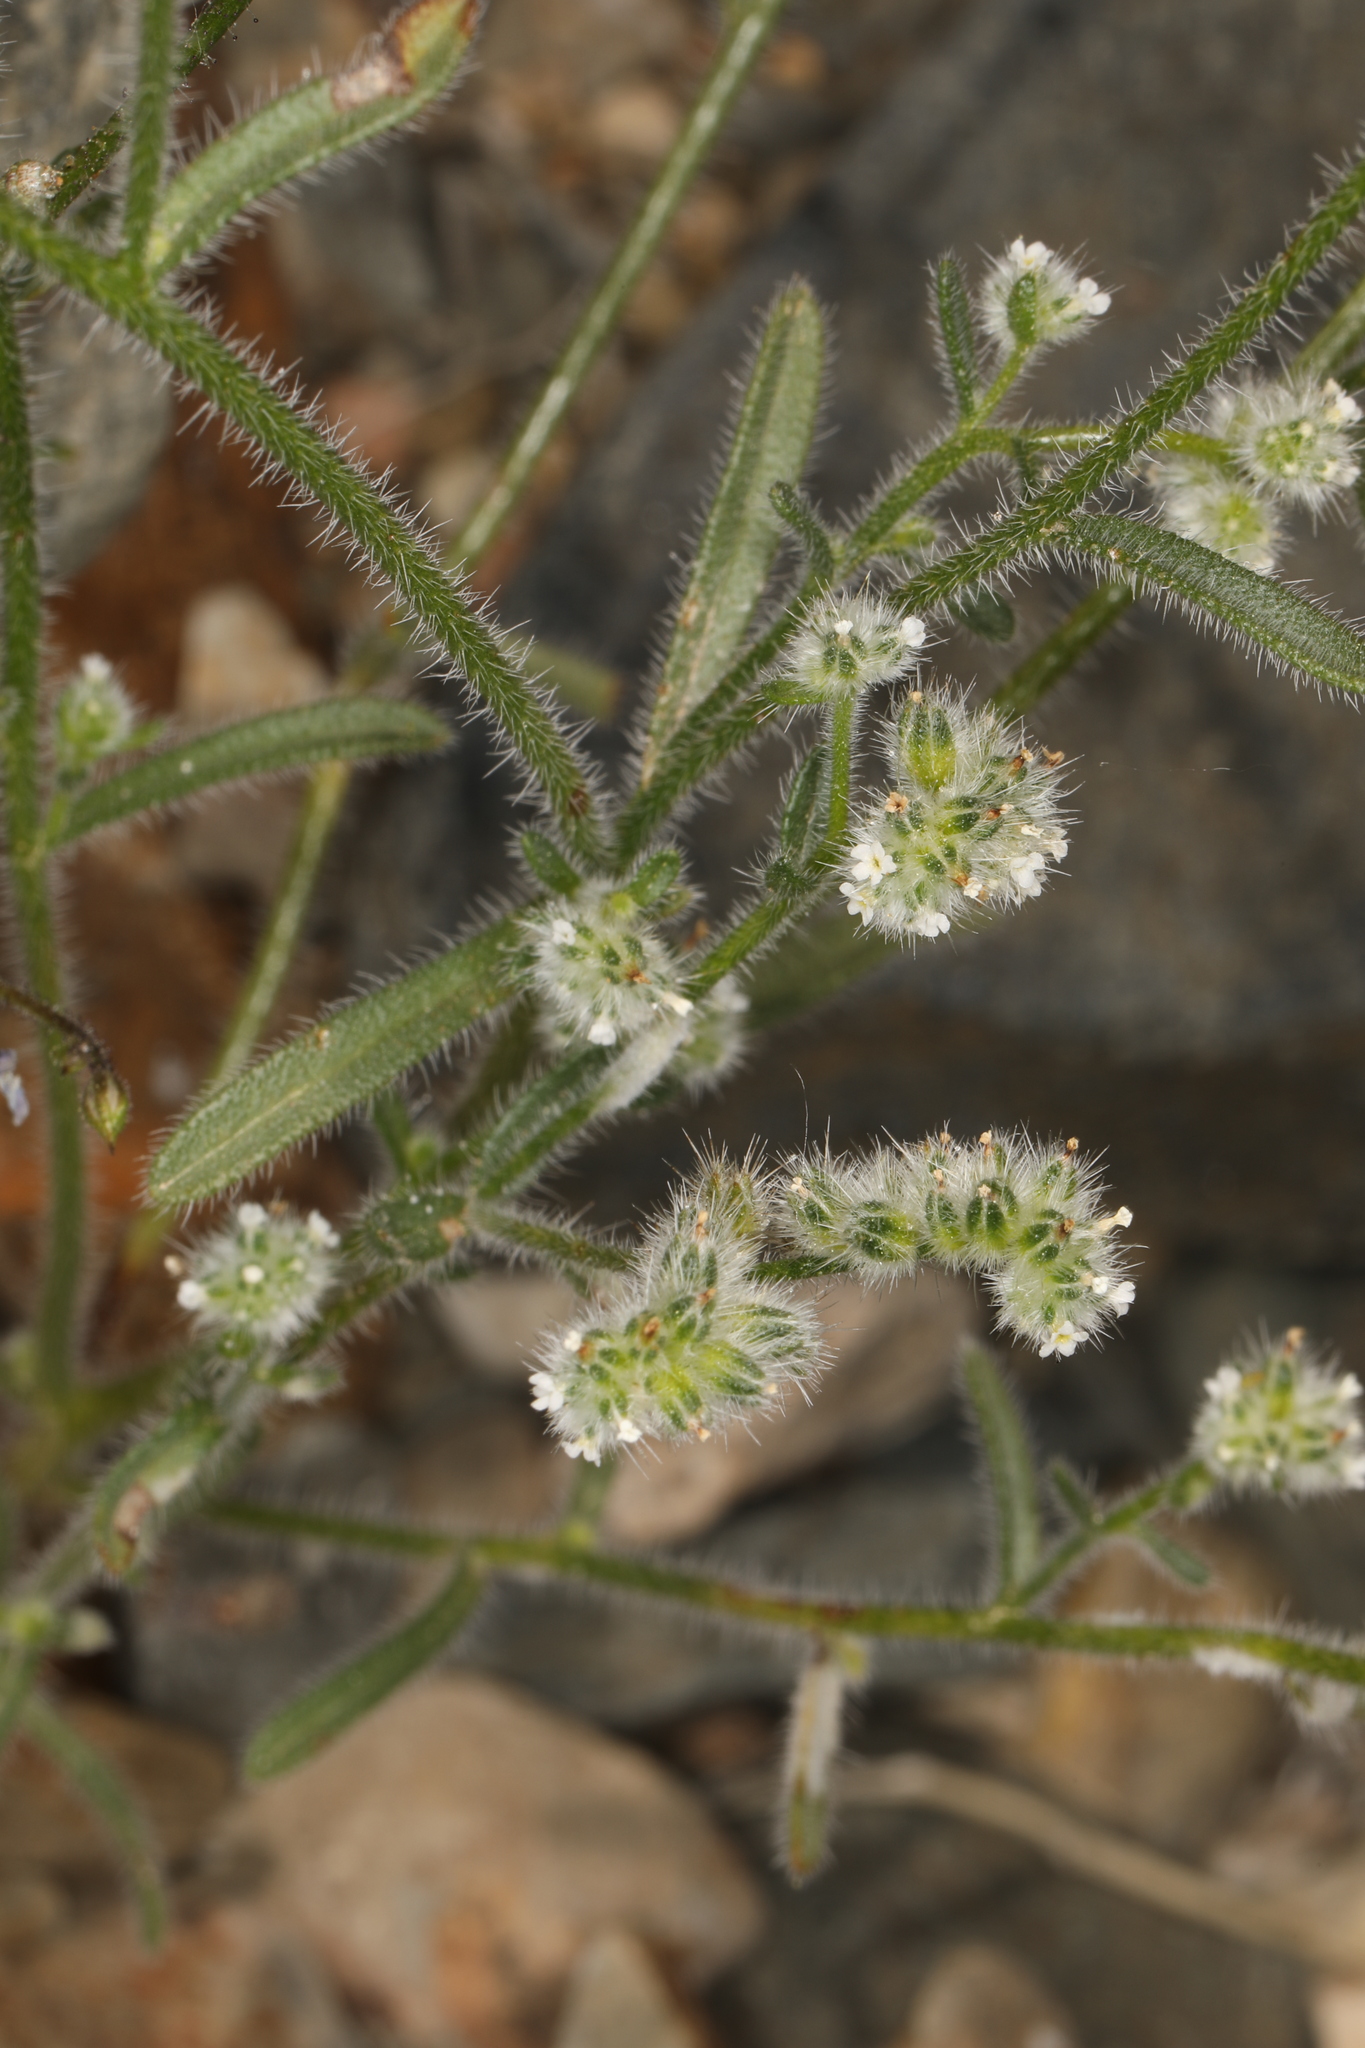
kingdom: Plantae
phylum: Tracheophyta
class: Magnoliopsida
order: Boraginales
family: Boraginaceae
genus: Cryptantha
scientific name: Cryptantha gracilis
